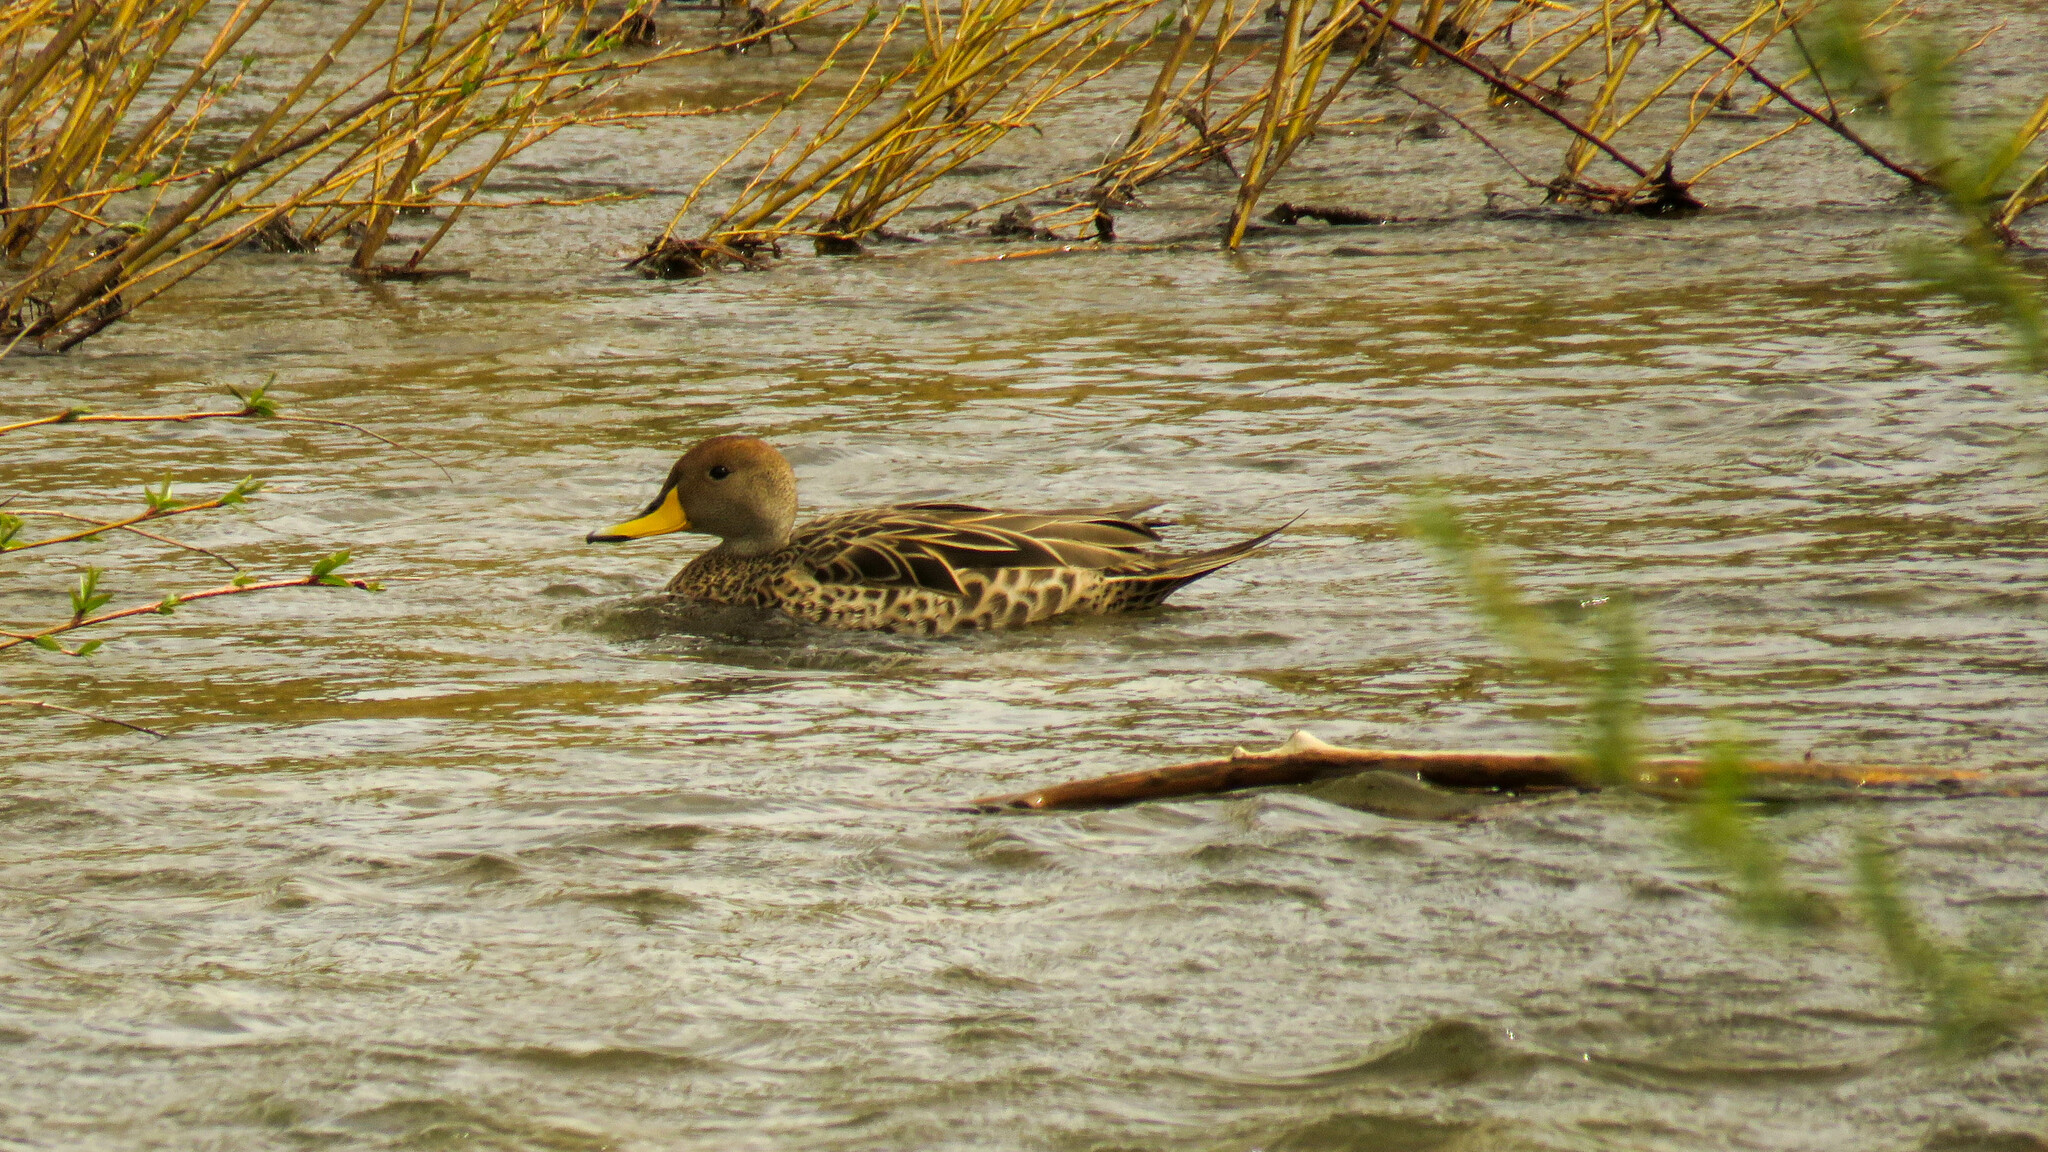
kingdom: Animalia
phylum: Chordata
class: Aves
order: Anseriformes
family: Anatidae
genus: Anas
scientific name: Anas georgica
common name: Yellow-billed pintail
